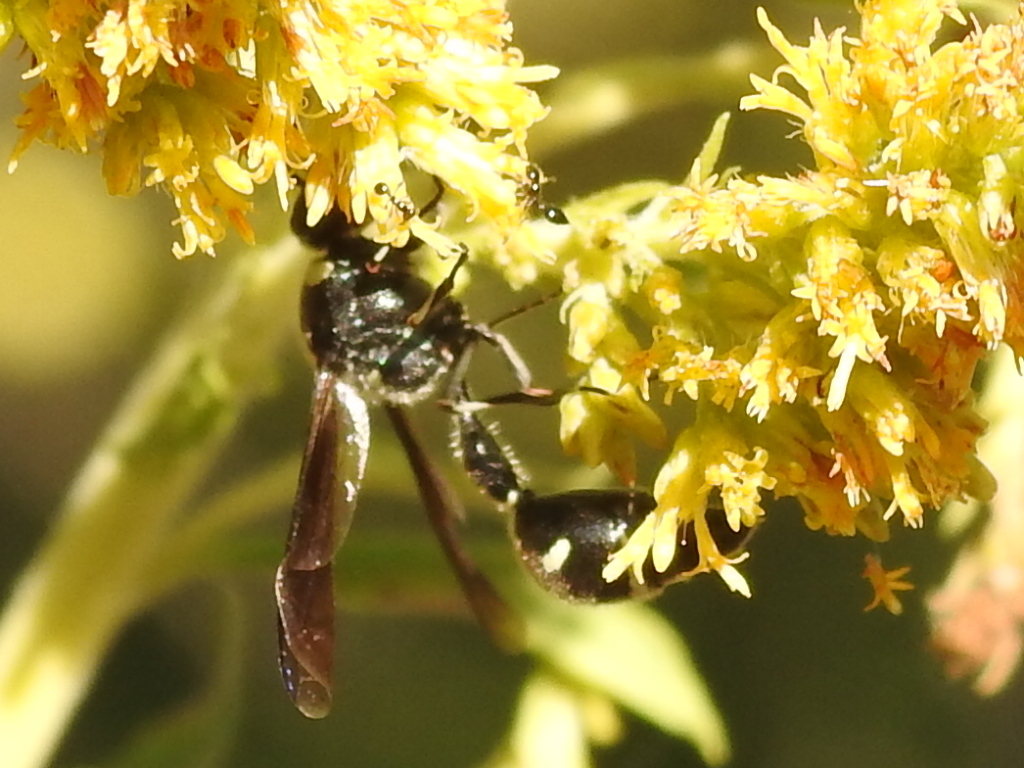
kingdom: Animalia
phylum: Arthropoda
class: Insecta
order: Hymenoptera
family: Vespidae
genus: Eumenes
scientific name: Eumenes fraternus
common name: Fraternal potter wasp
